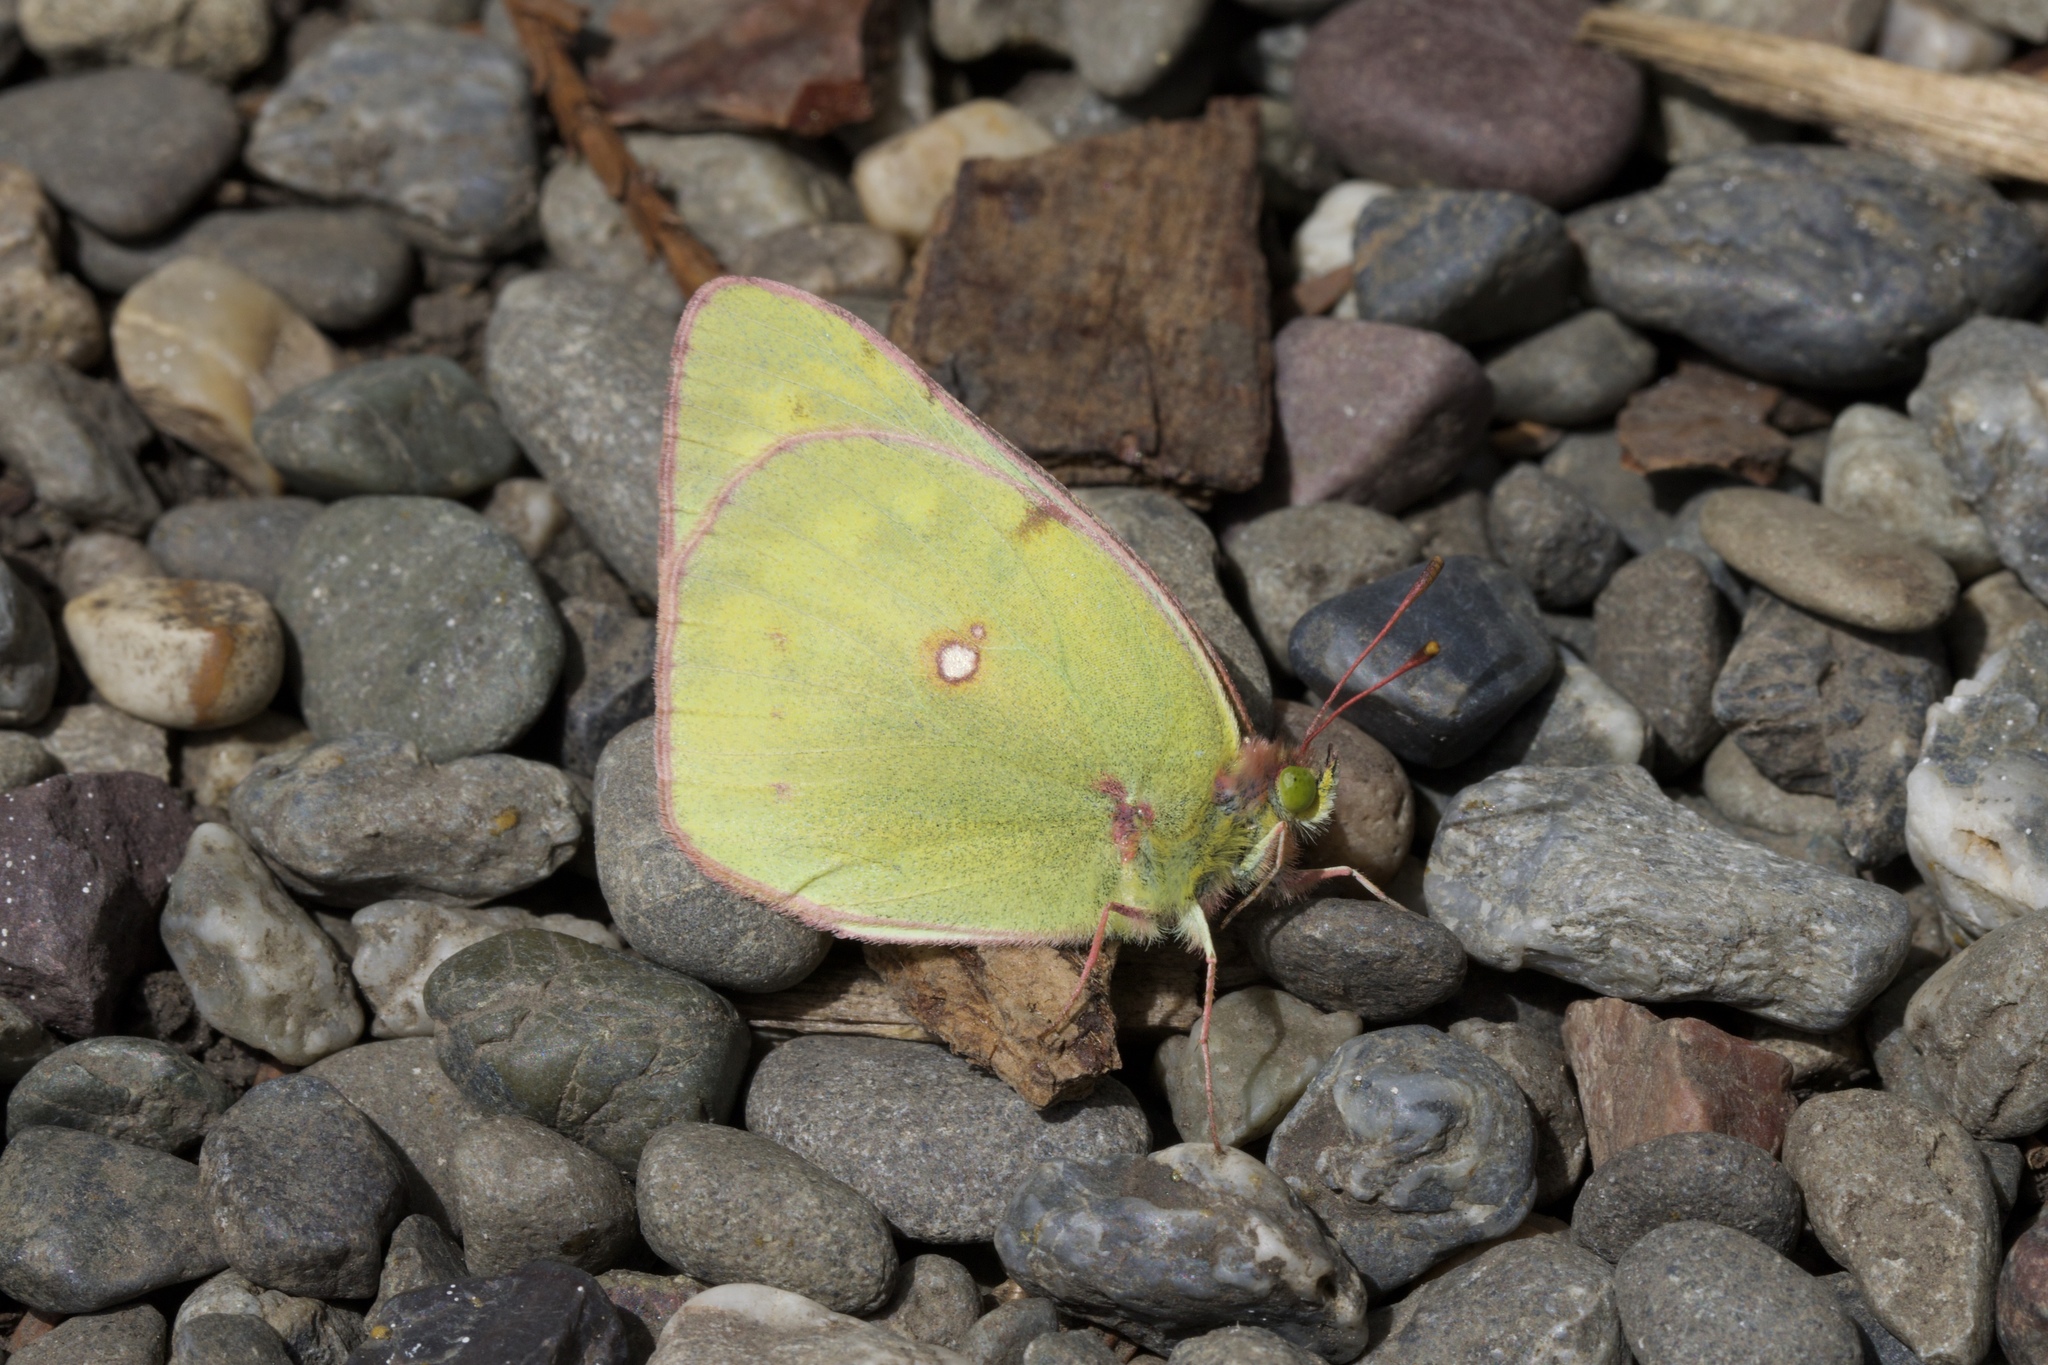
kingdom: Animalia
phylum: Arthropoda
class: Insecta
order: Lepidoptera
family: Pieridae
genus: Colias
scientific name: Colias eurytheme
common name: Alfalfa butterfly
